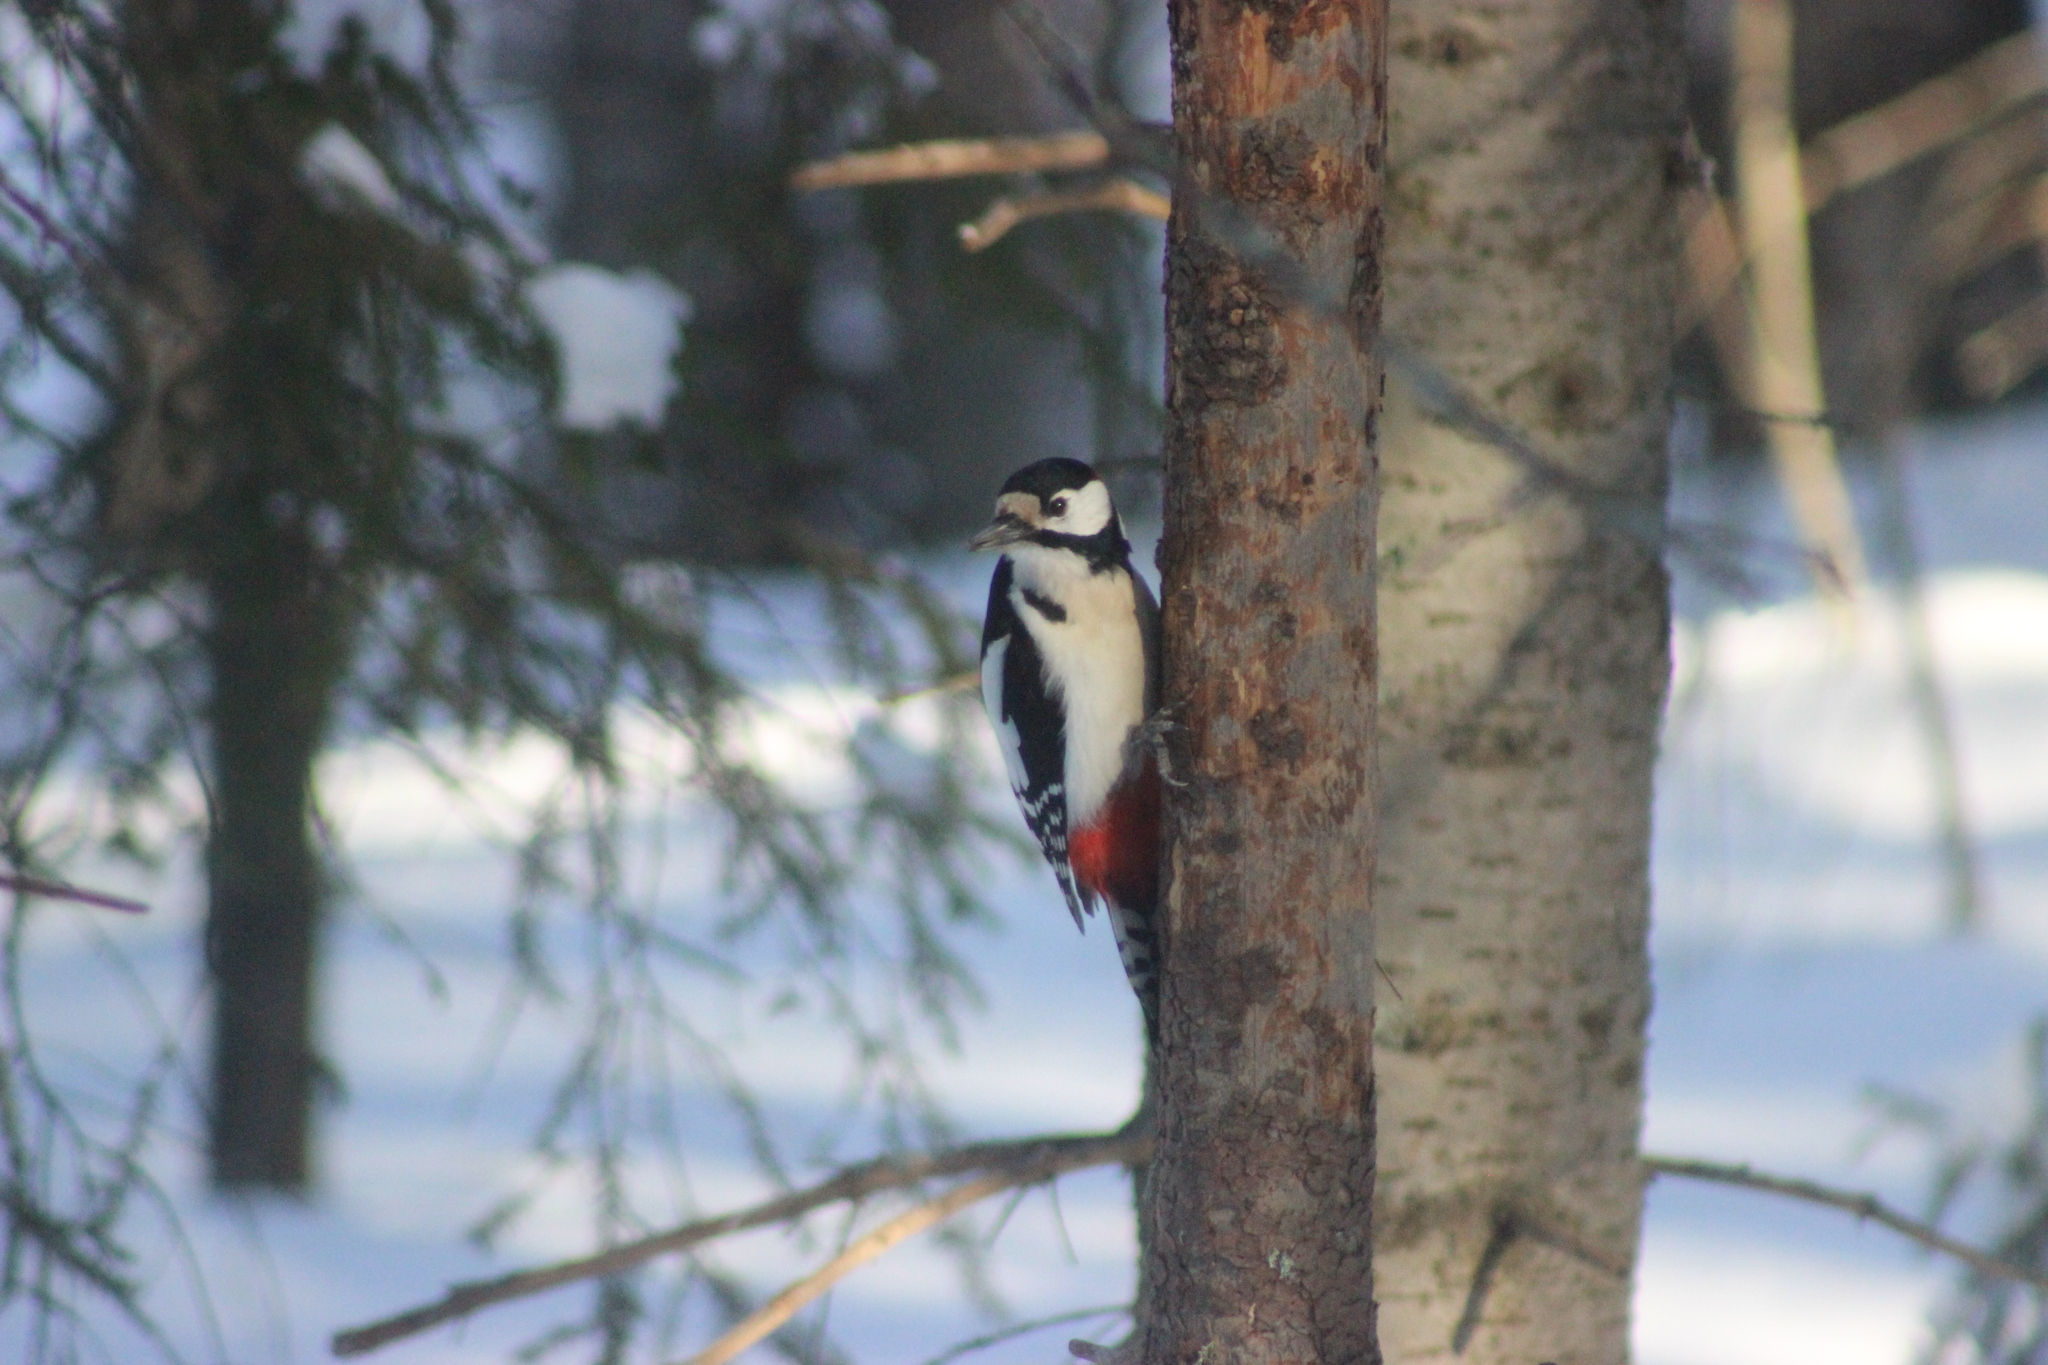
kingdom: Animalia
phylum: Chordata
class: Aves
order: Piciformes
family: Picidae
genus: Dendrocopos
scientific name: Dendrocopos major
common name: Great spotted woodpecker
